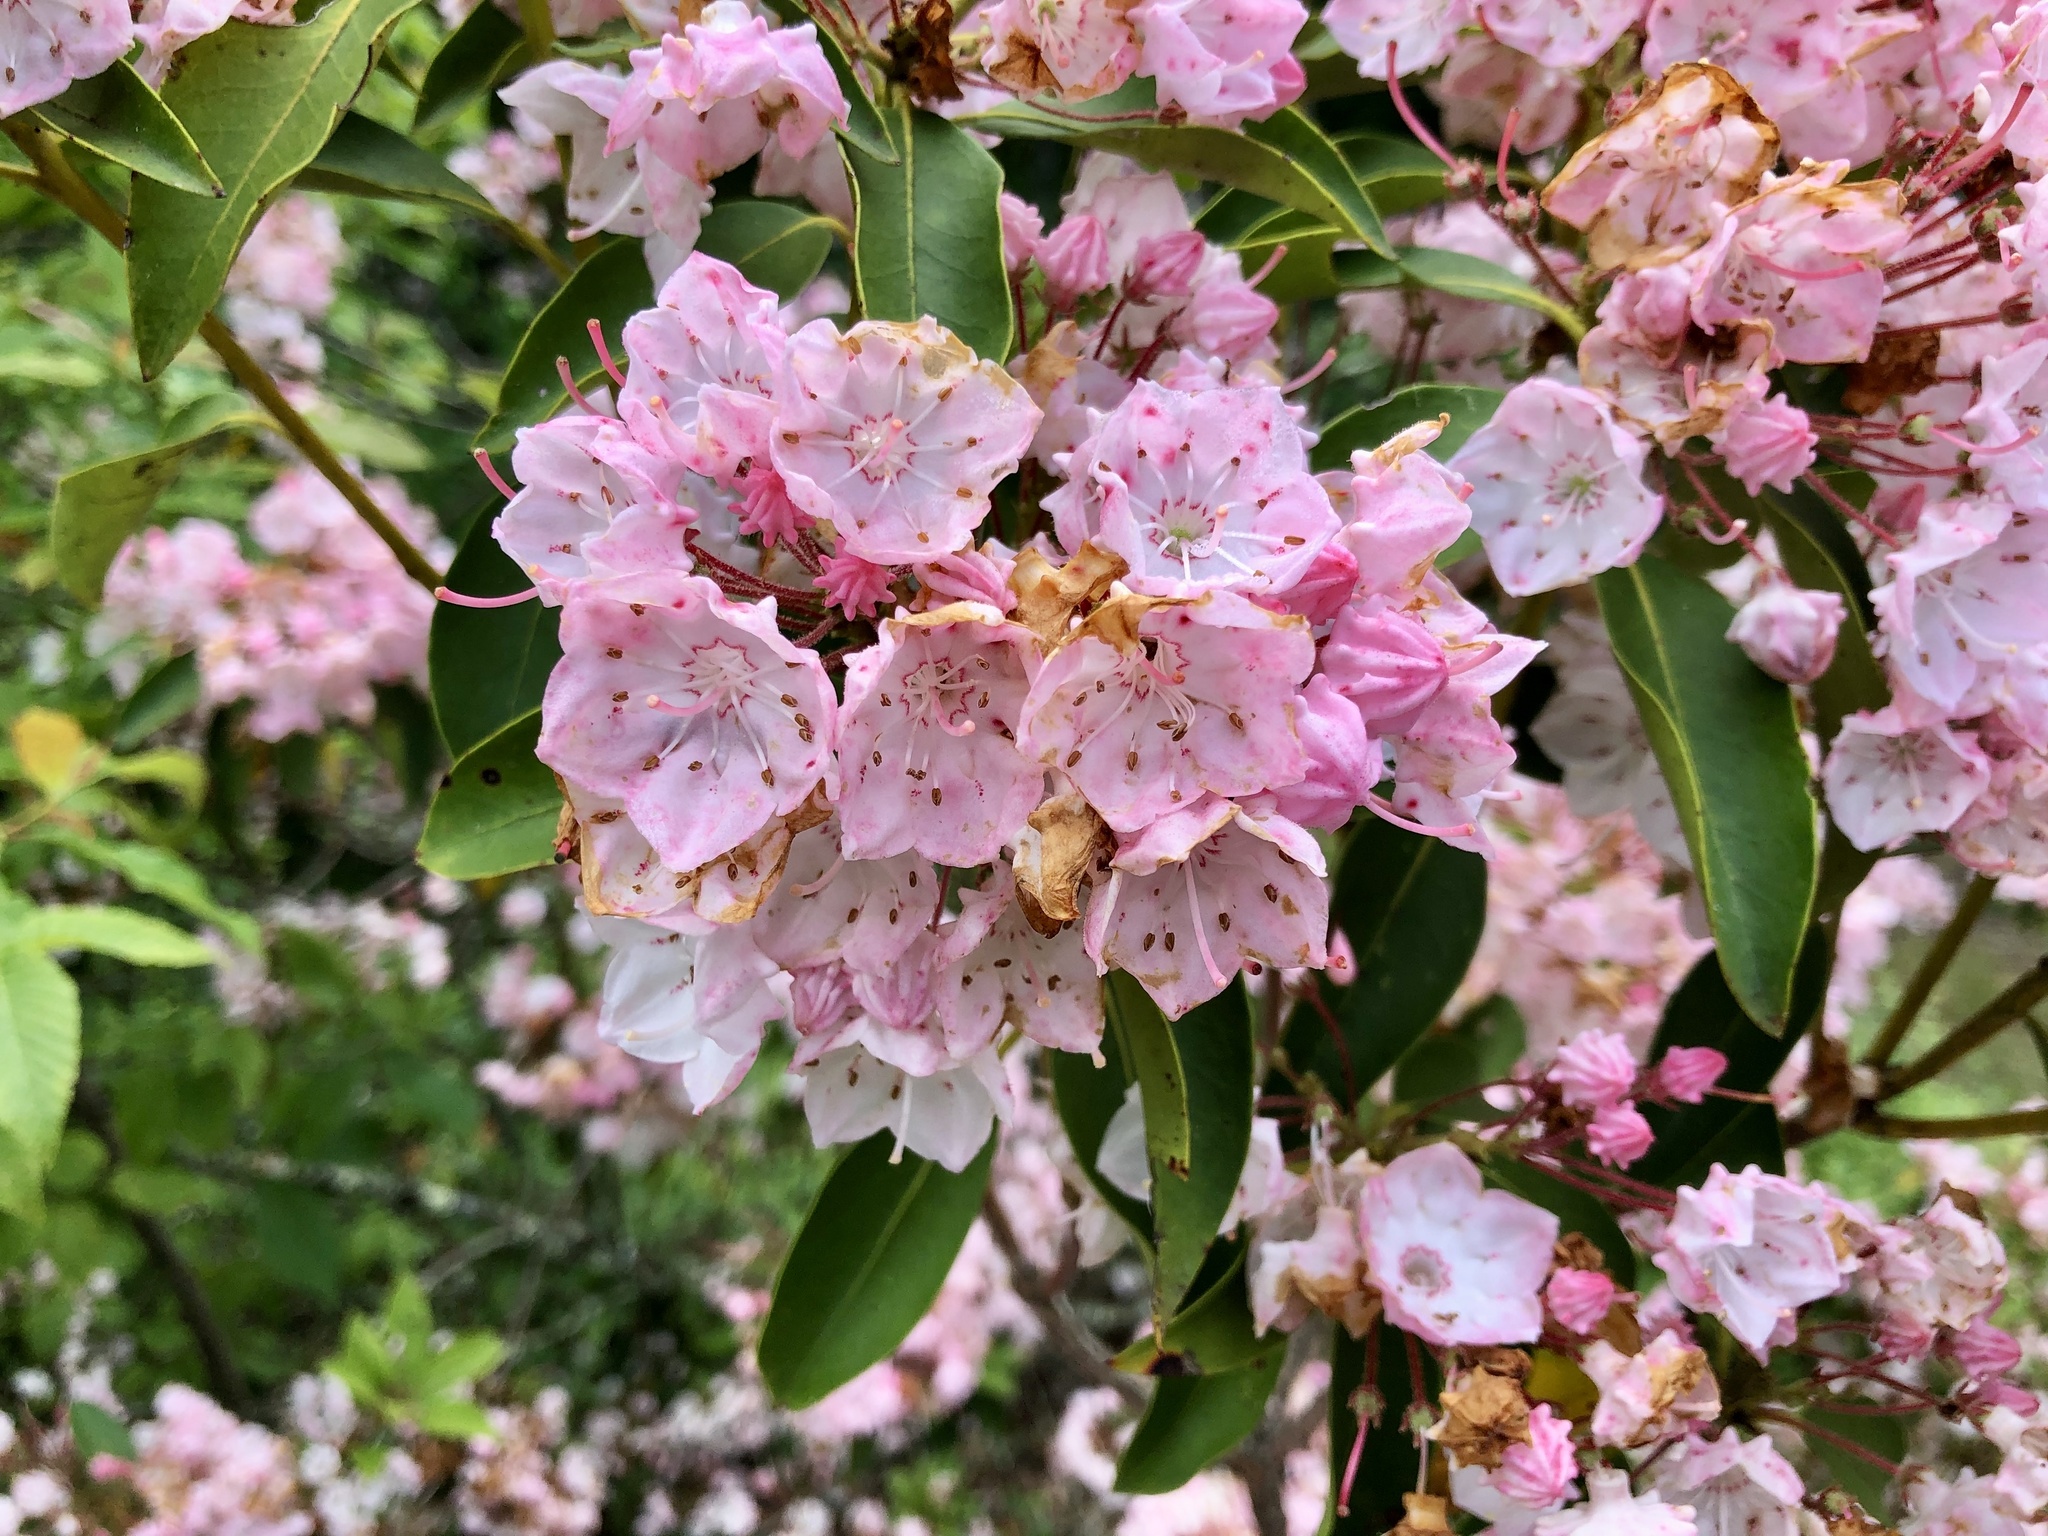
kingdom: Plantae
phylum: Tracheophyta
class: Magnoliopsida
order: Ericales
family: Ericaceae
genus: Kalmia
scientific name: Kalmia latifolia
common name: Mountain-laurel
